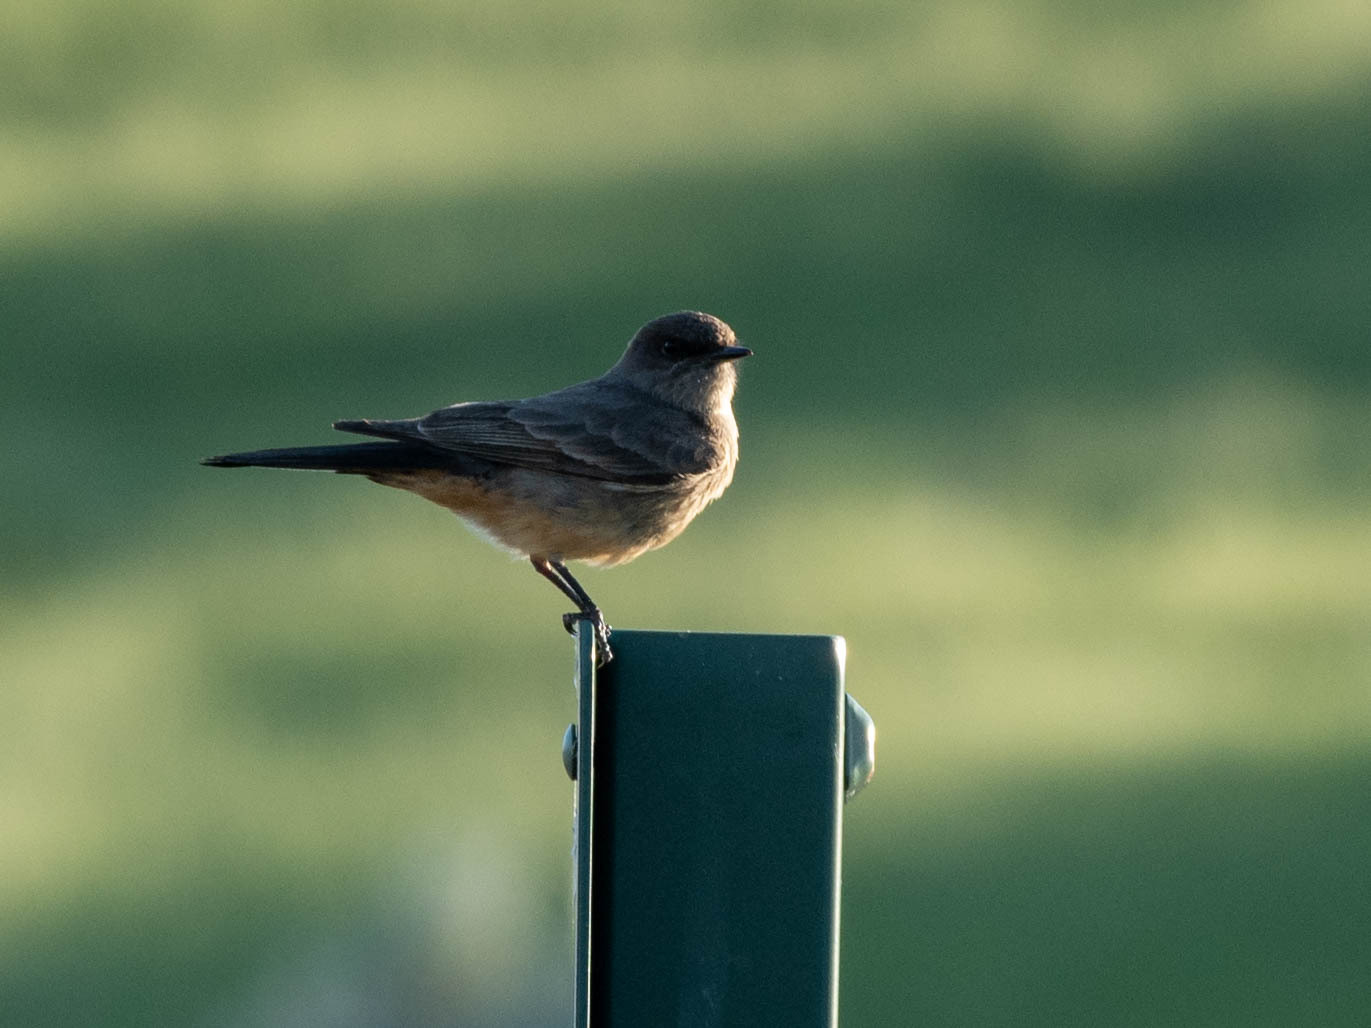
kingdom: Animalia
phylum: Chordata
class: Aves
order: Passeriformes
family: Tyrannidae
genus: Sayornis
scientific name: Sayornis saya
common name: Say's phoebe
